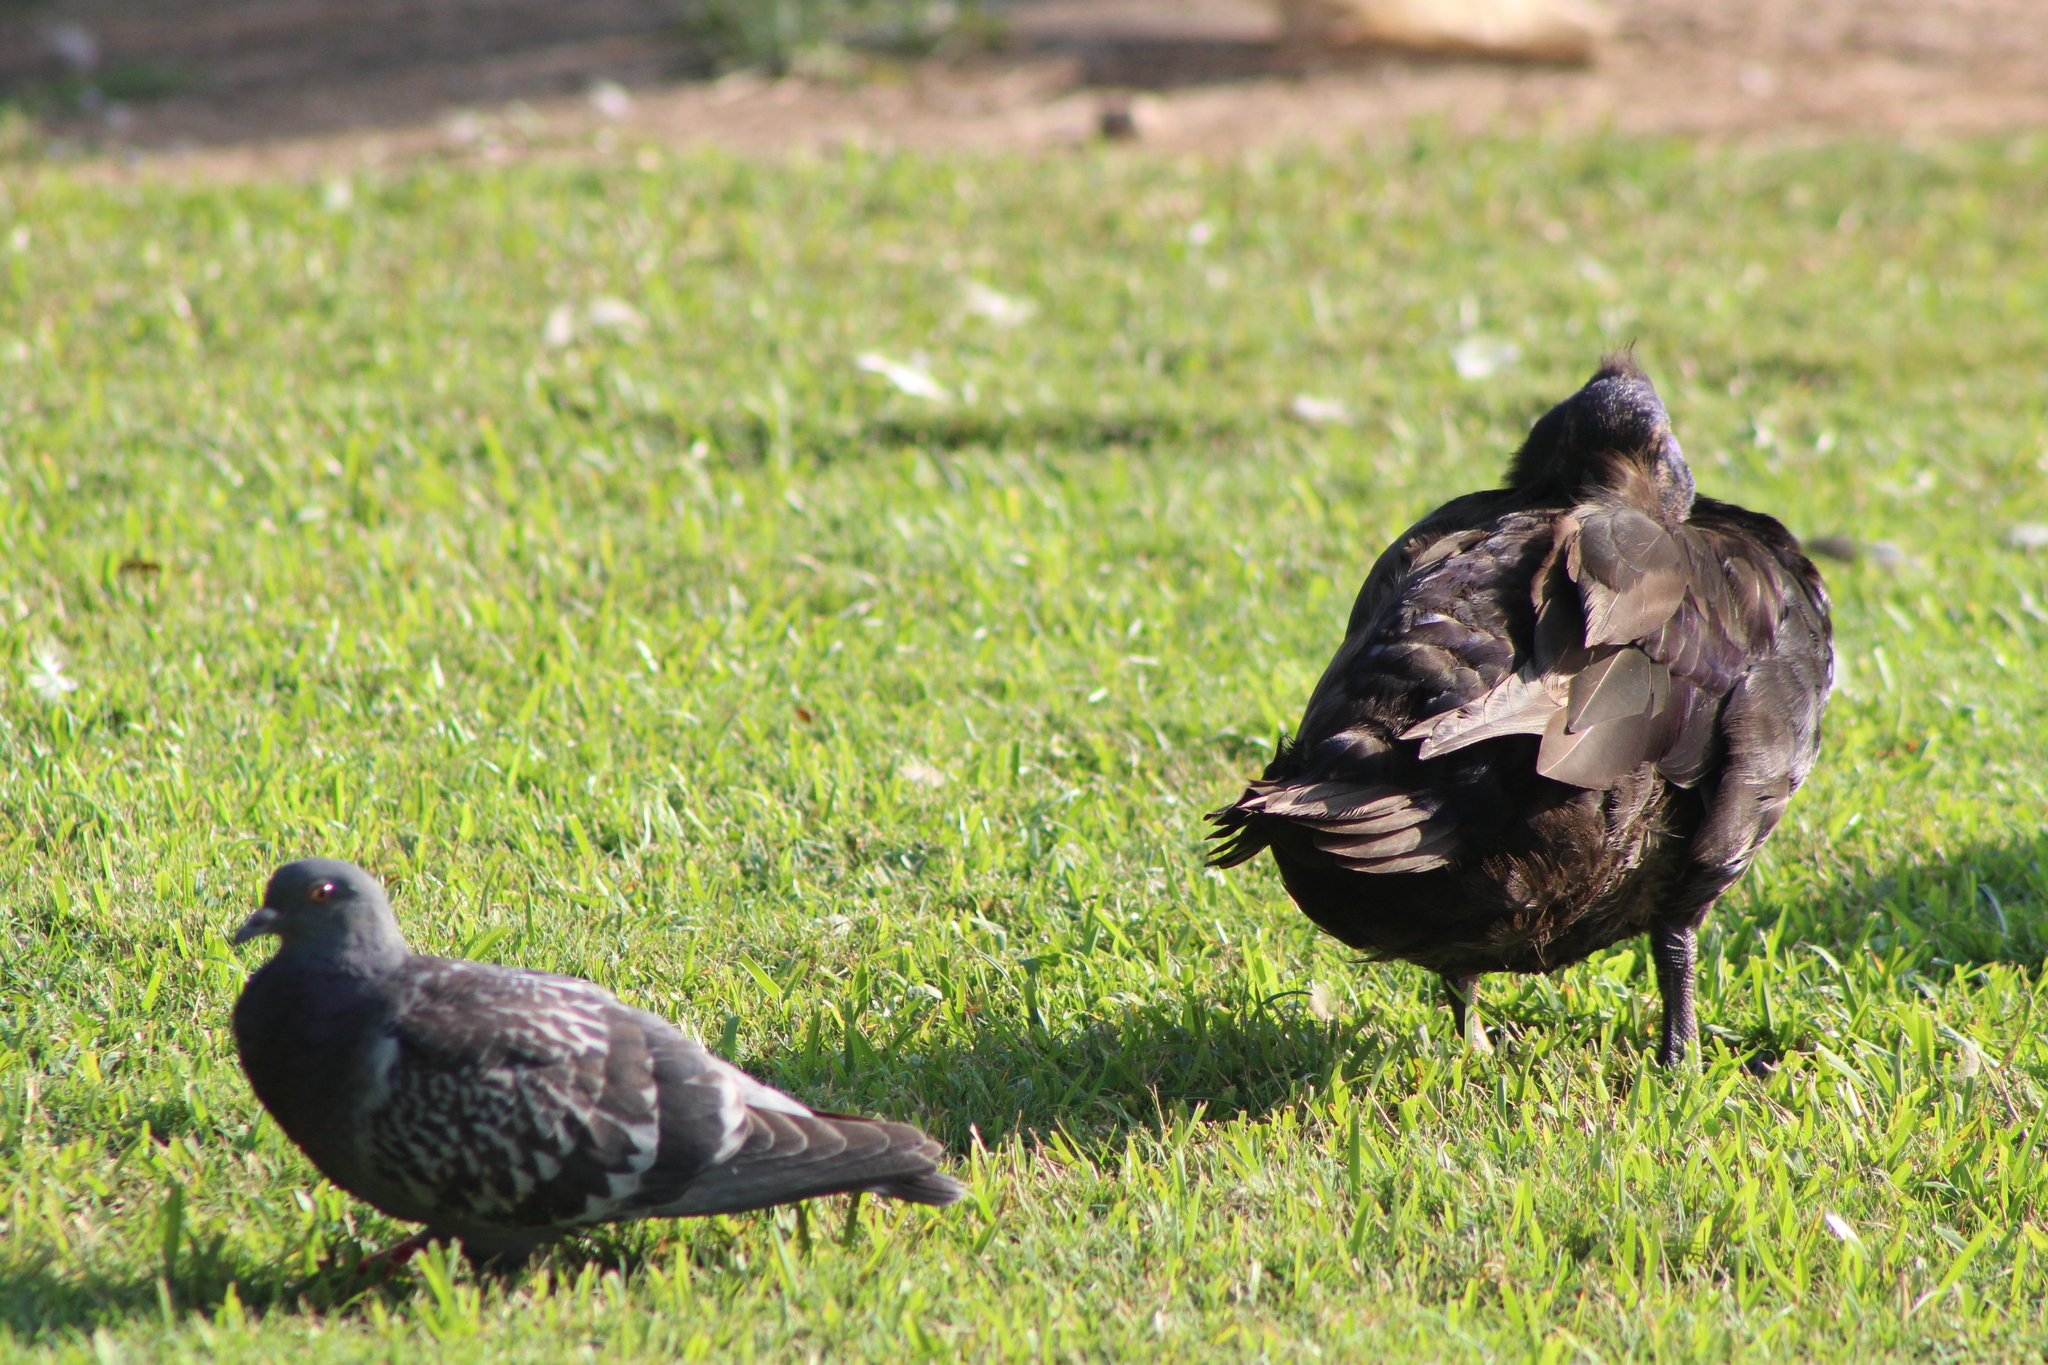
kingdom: Animalia
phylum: Chordata
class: Aves
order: Anseriformes
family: Anatidae
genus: Anas
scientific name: Anas platyrhynchos
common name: Mallard
